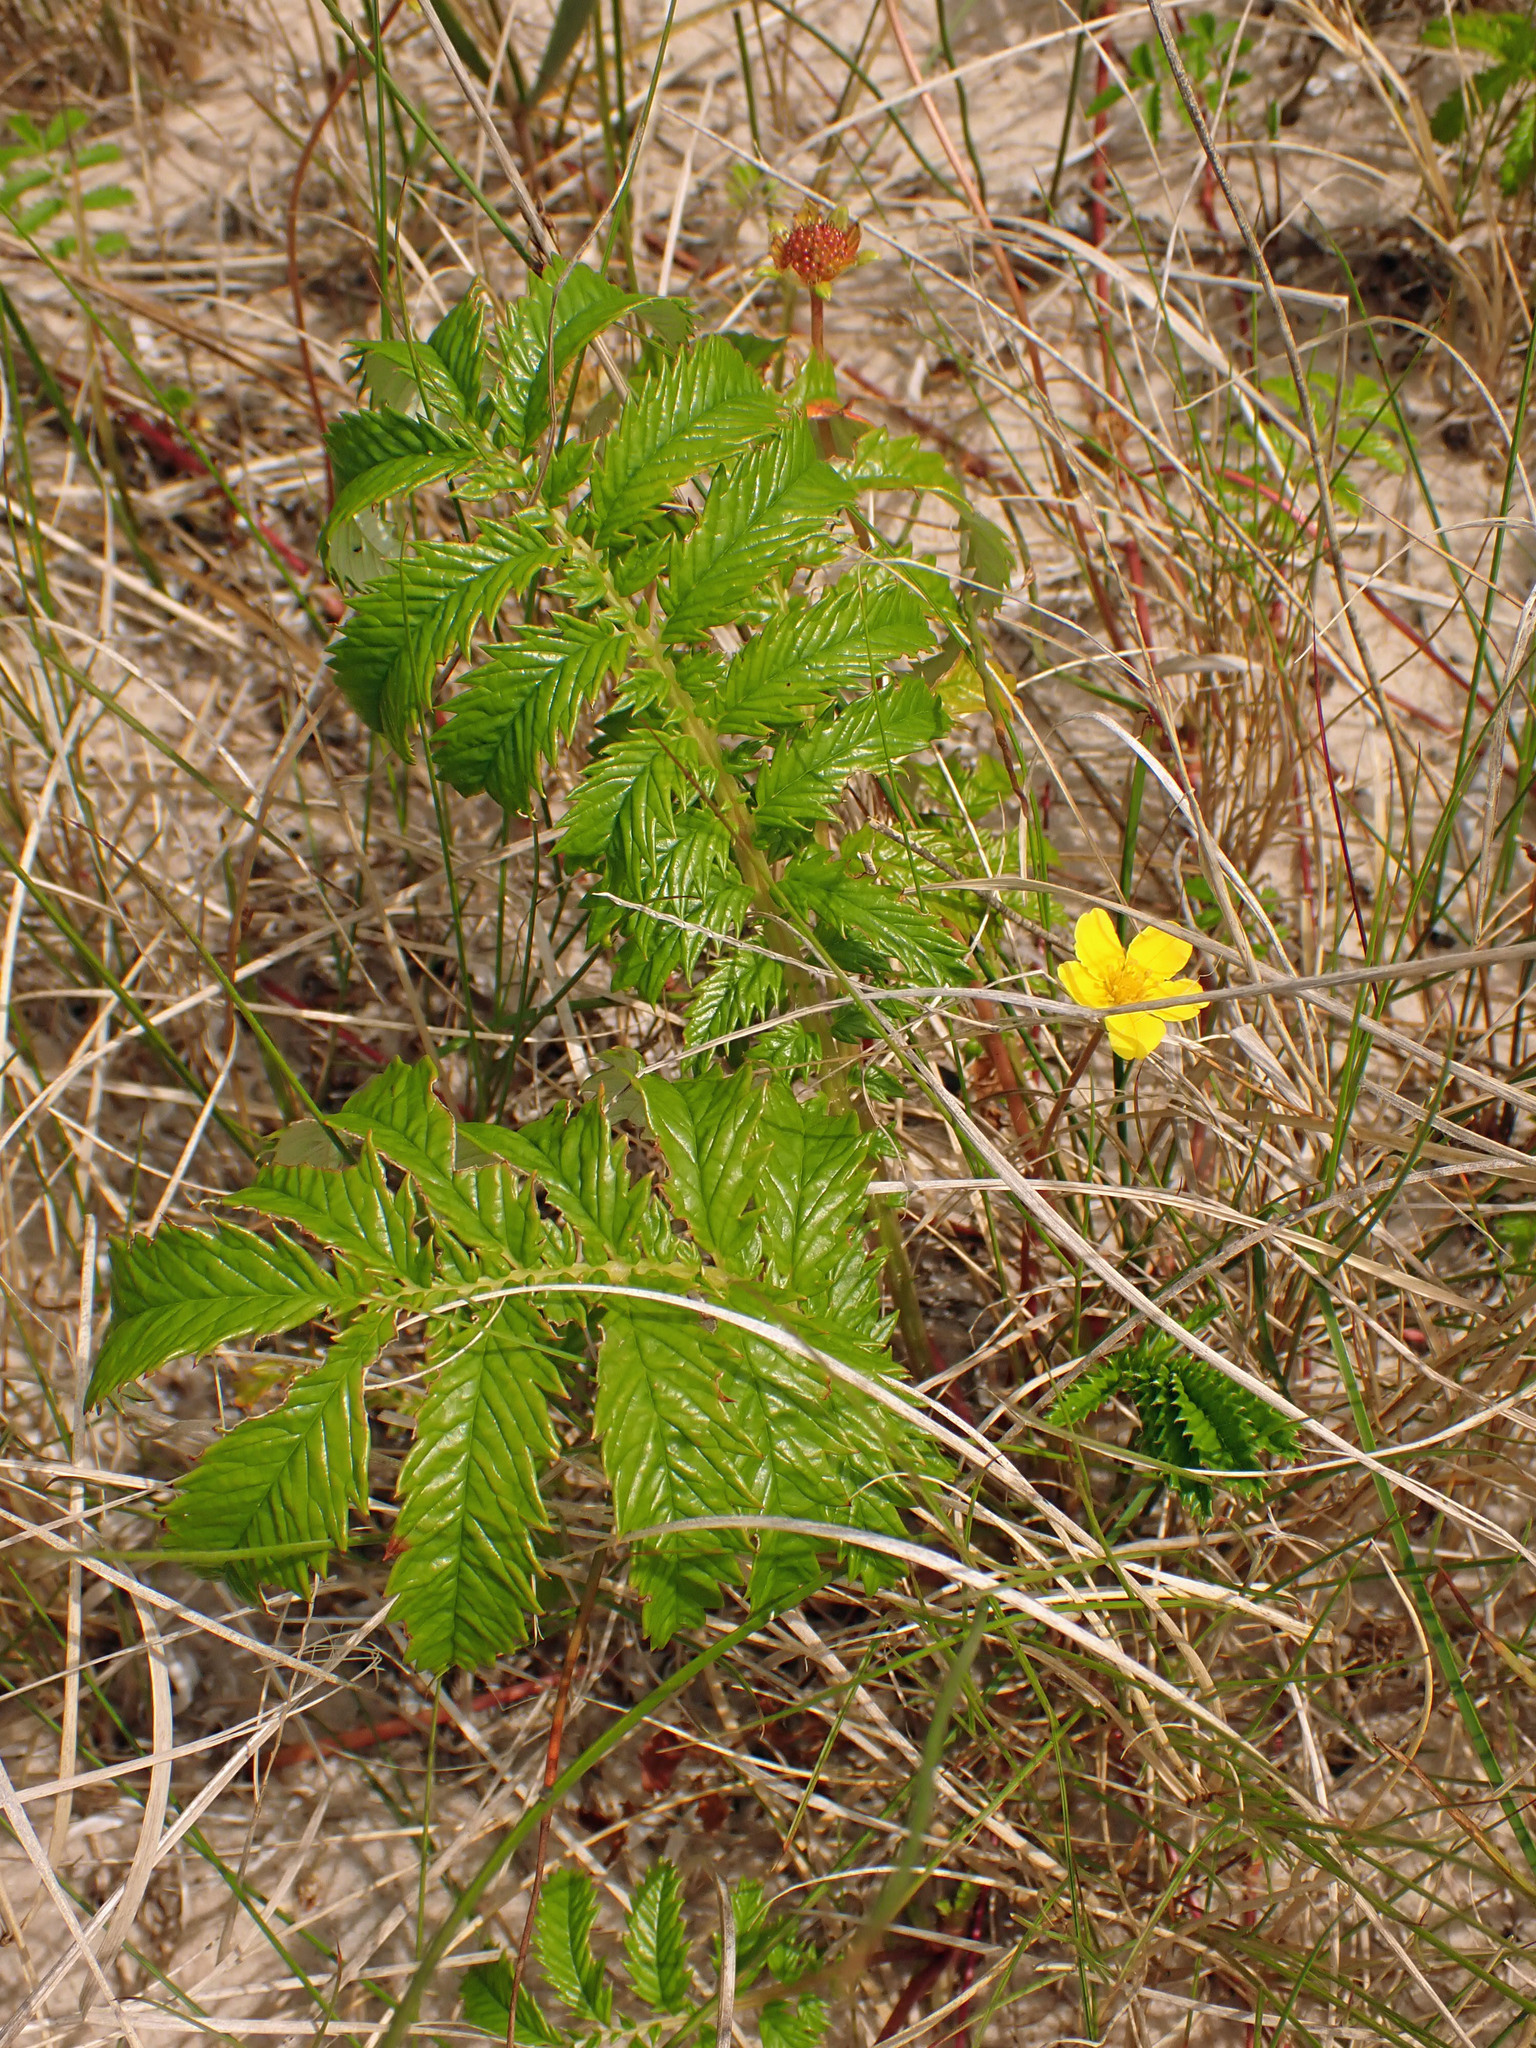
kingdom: Plantae
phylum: Tracheophyta
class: Magnoliopsida
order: Rosales
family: Rosaceae
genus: Argentina
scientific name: Argentina anserina
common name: Common silverweed
